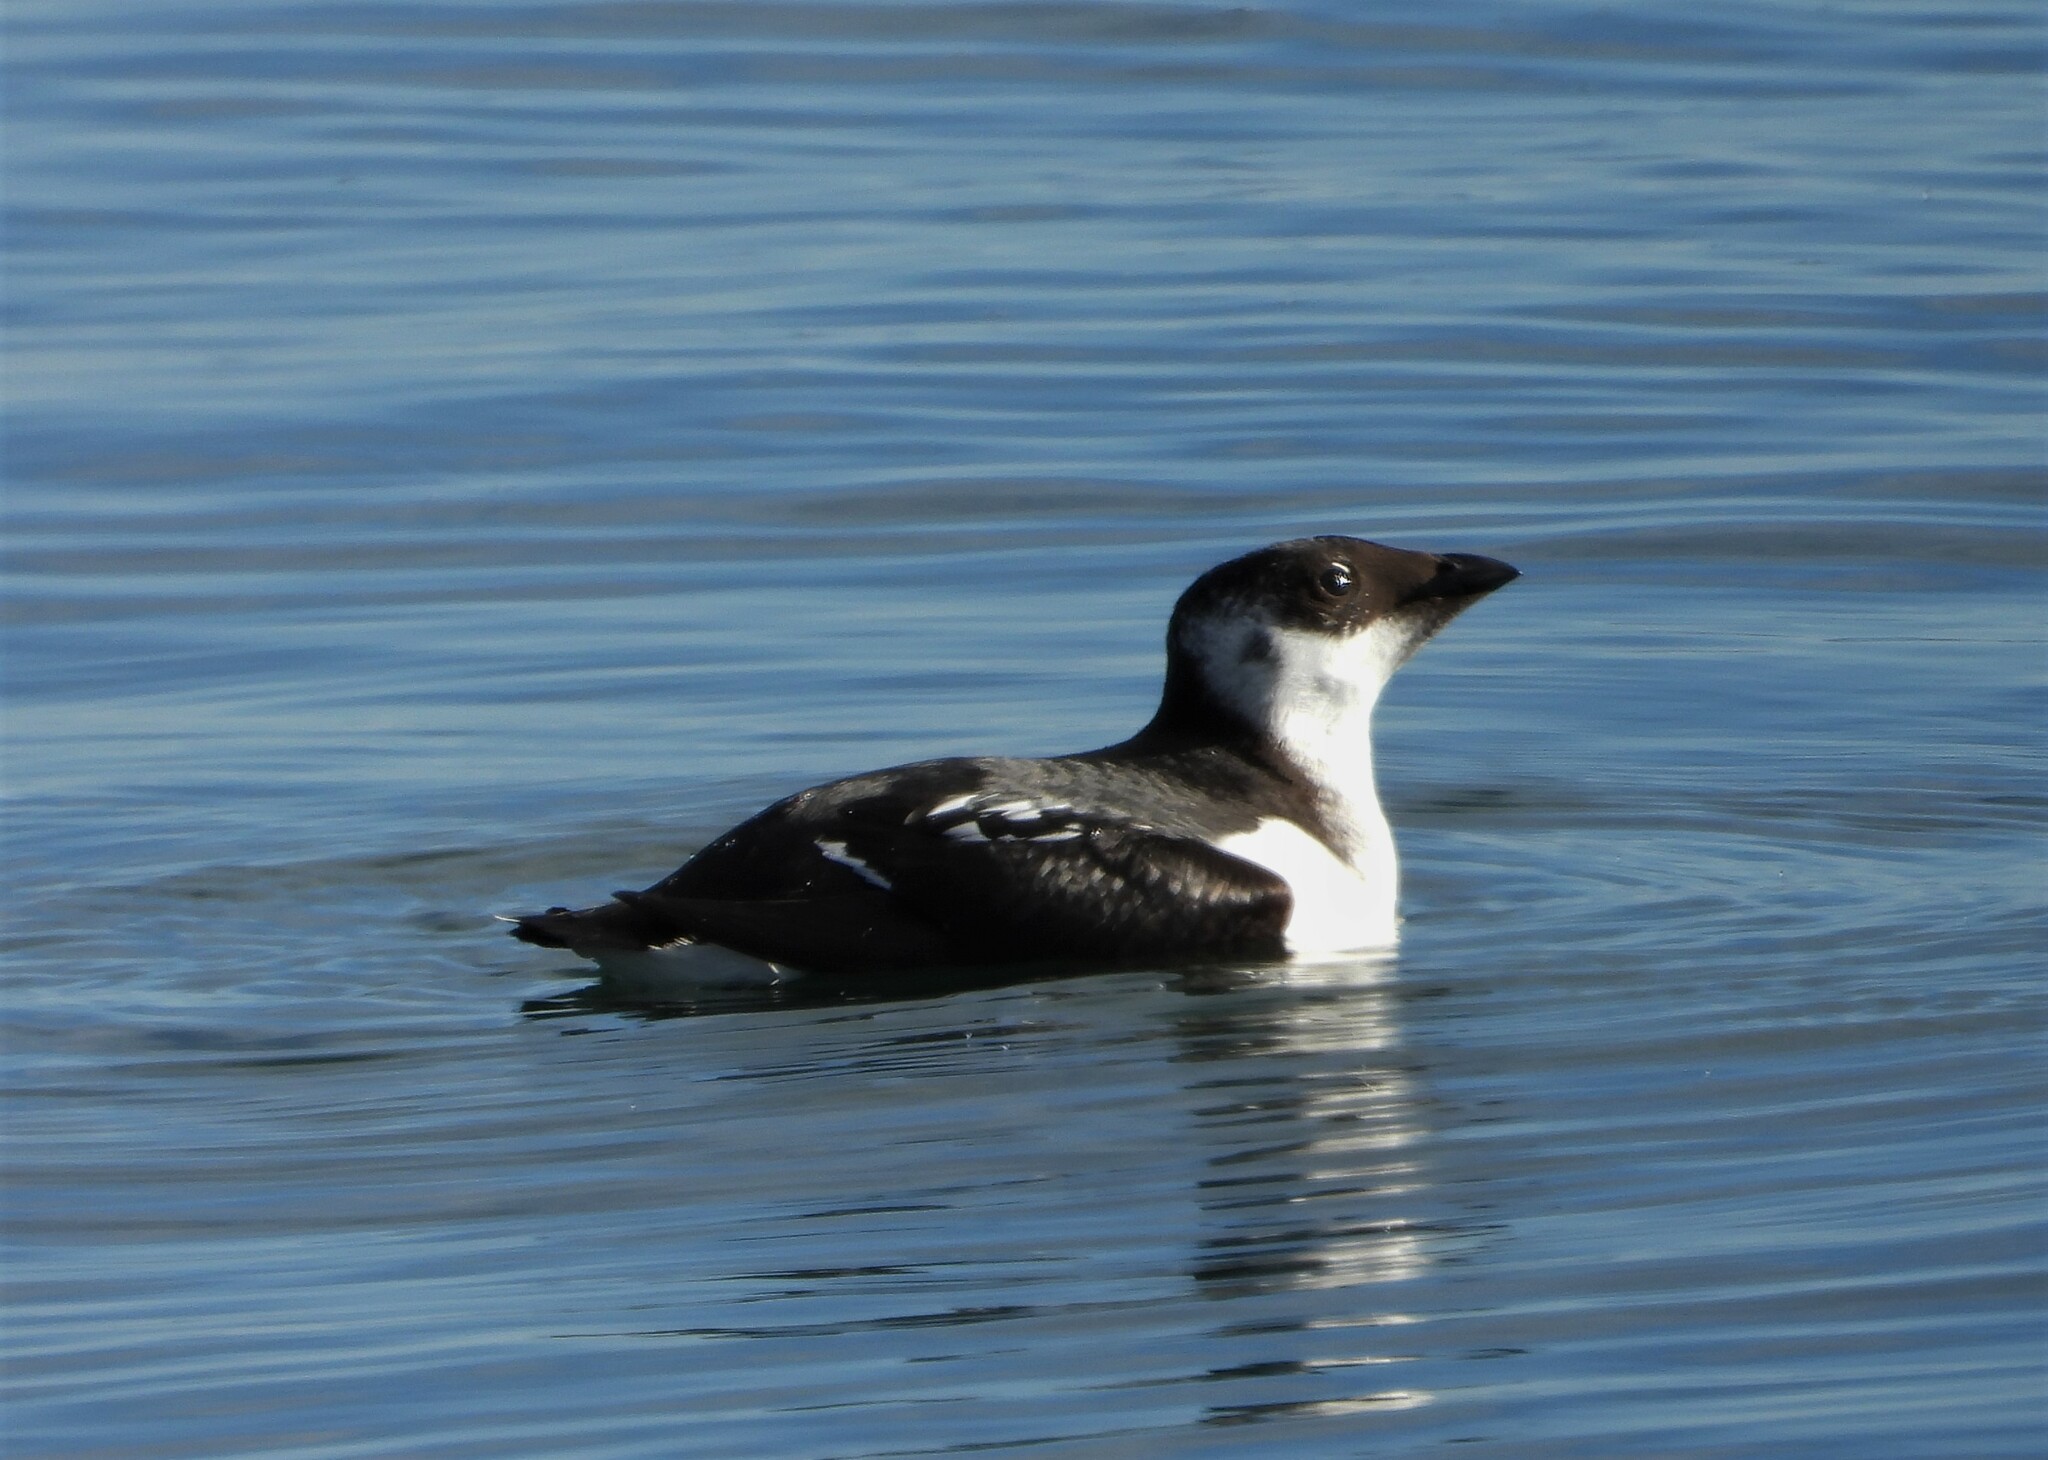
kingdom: Animalia
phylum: Chordata
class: Aves
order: Charadriiformes
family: Alcidae
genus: Alle
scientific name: Alle alle
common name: Little auk
